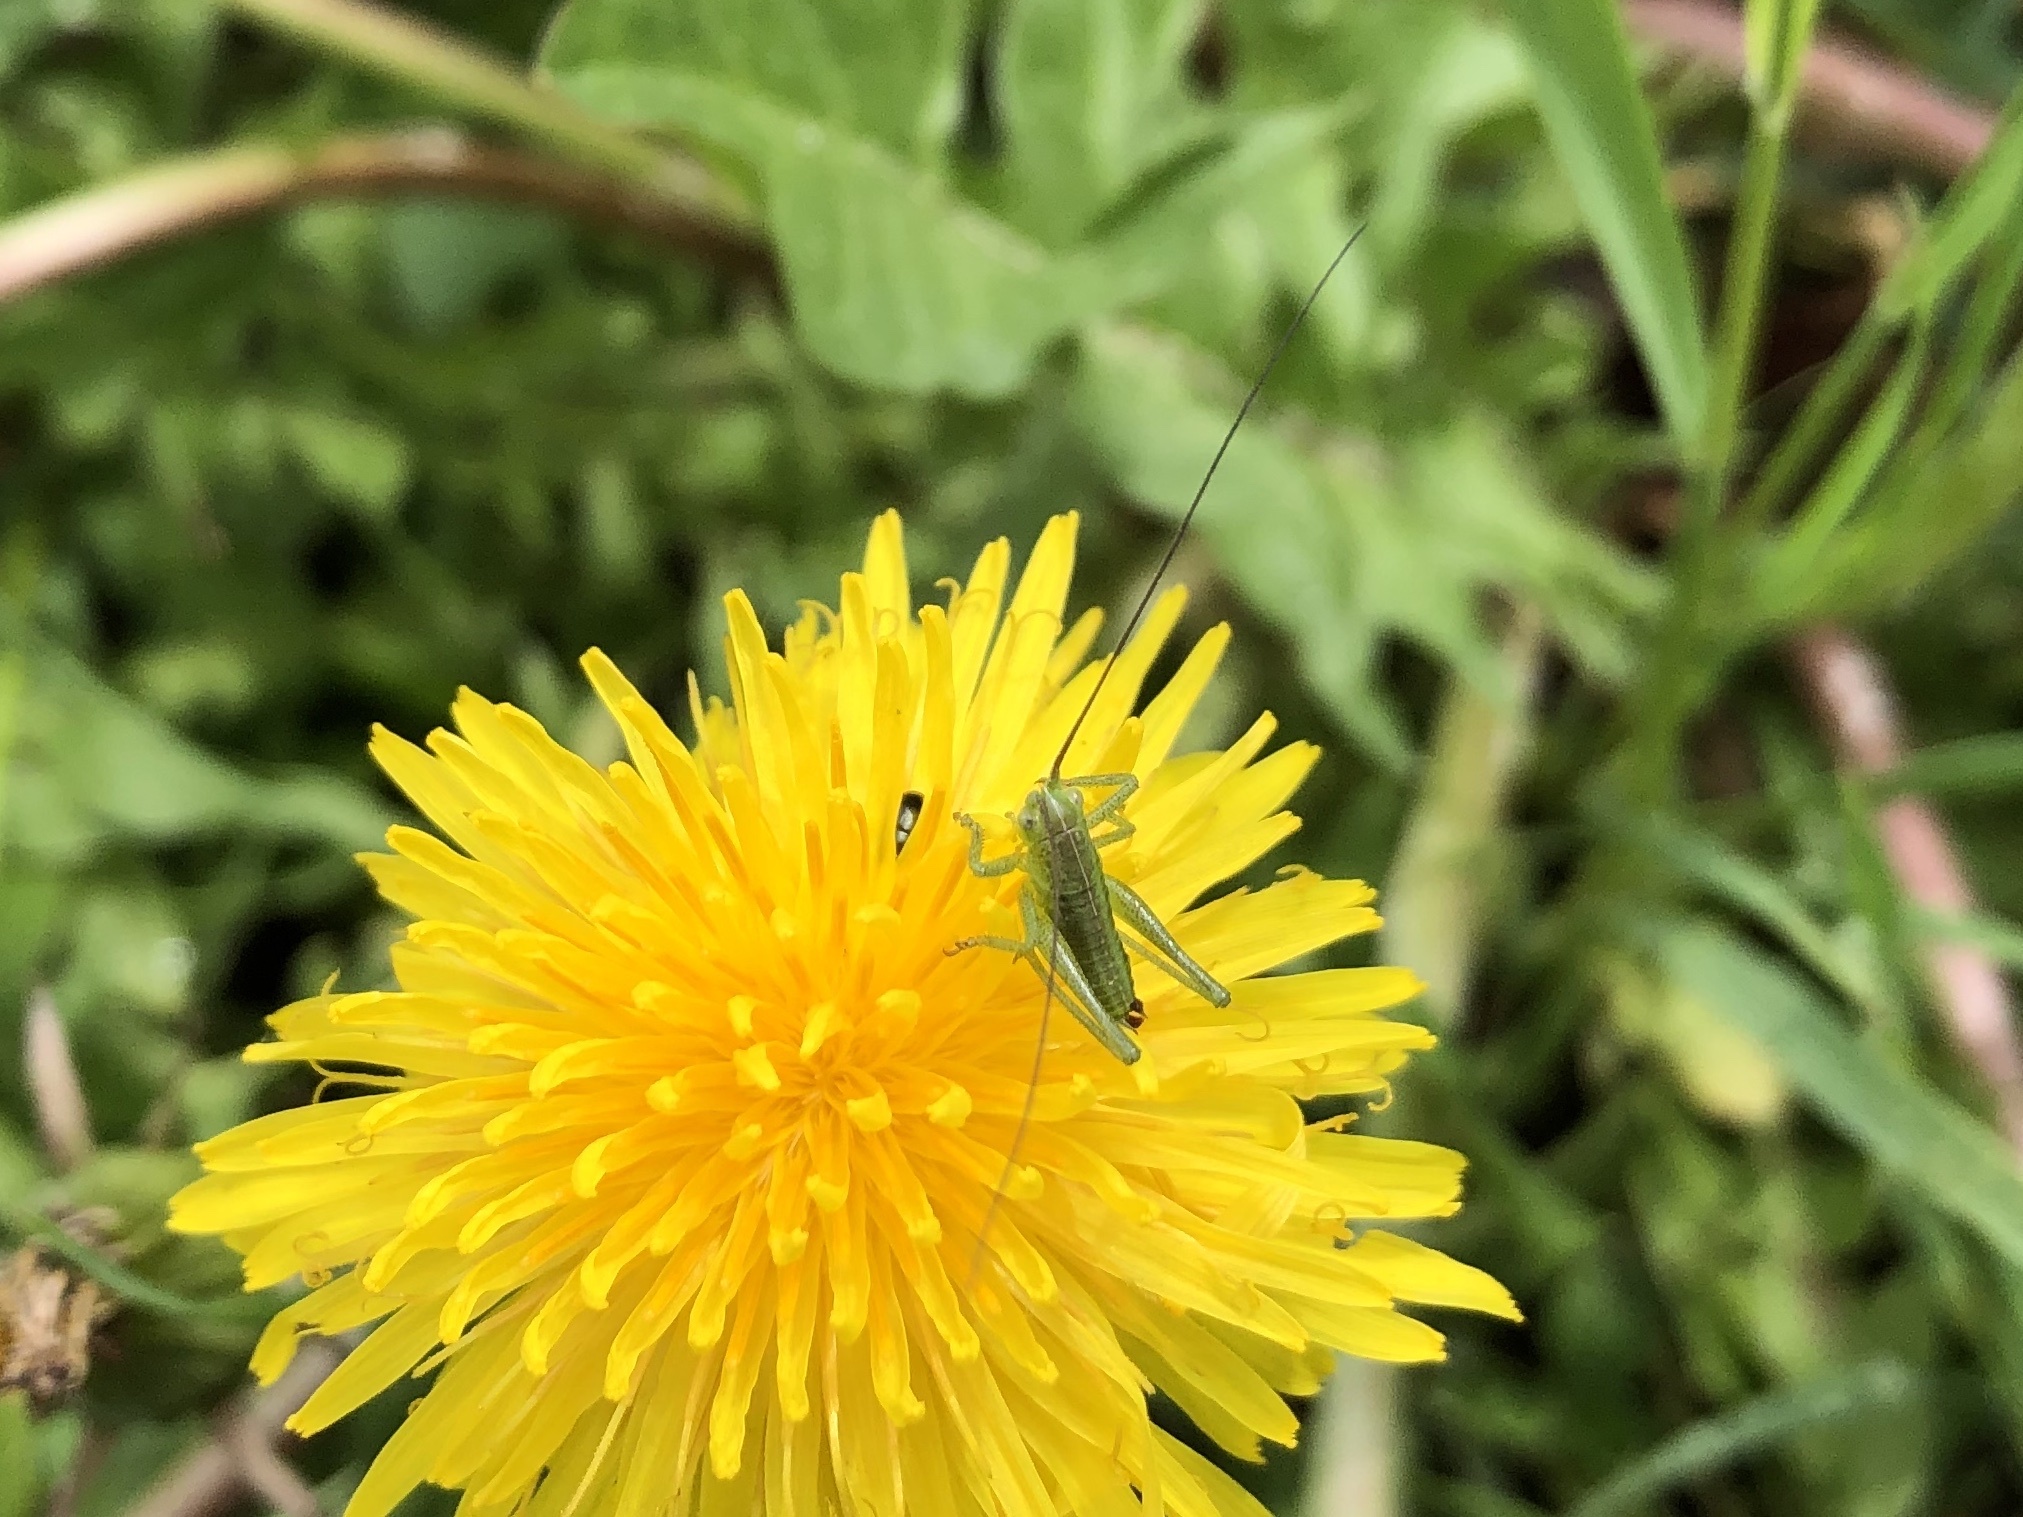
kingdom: Animalia
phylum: Arthropoda
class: Insecta
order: Orthoptera
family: Tettigoniidae
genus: Tettigonia
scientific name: Tettigonia viridissima
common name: Great green bush-cricket
